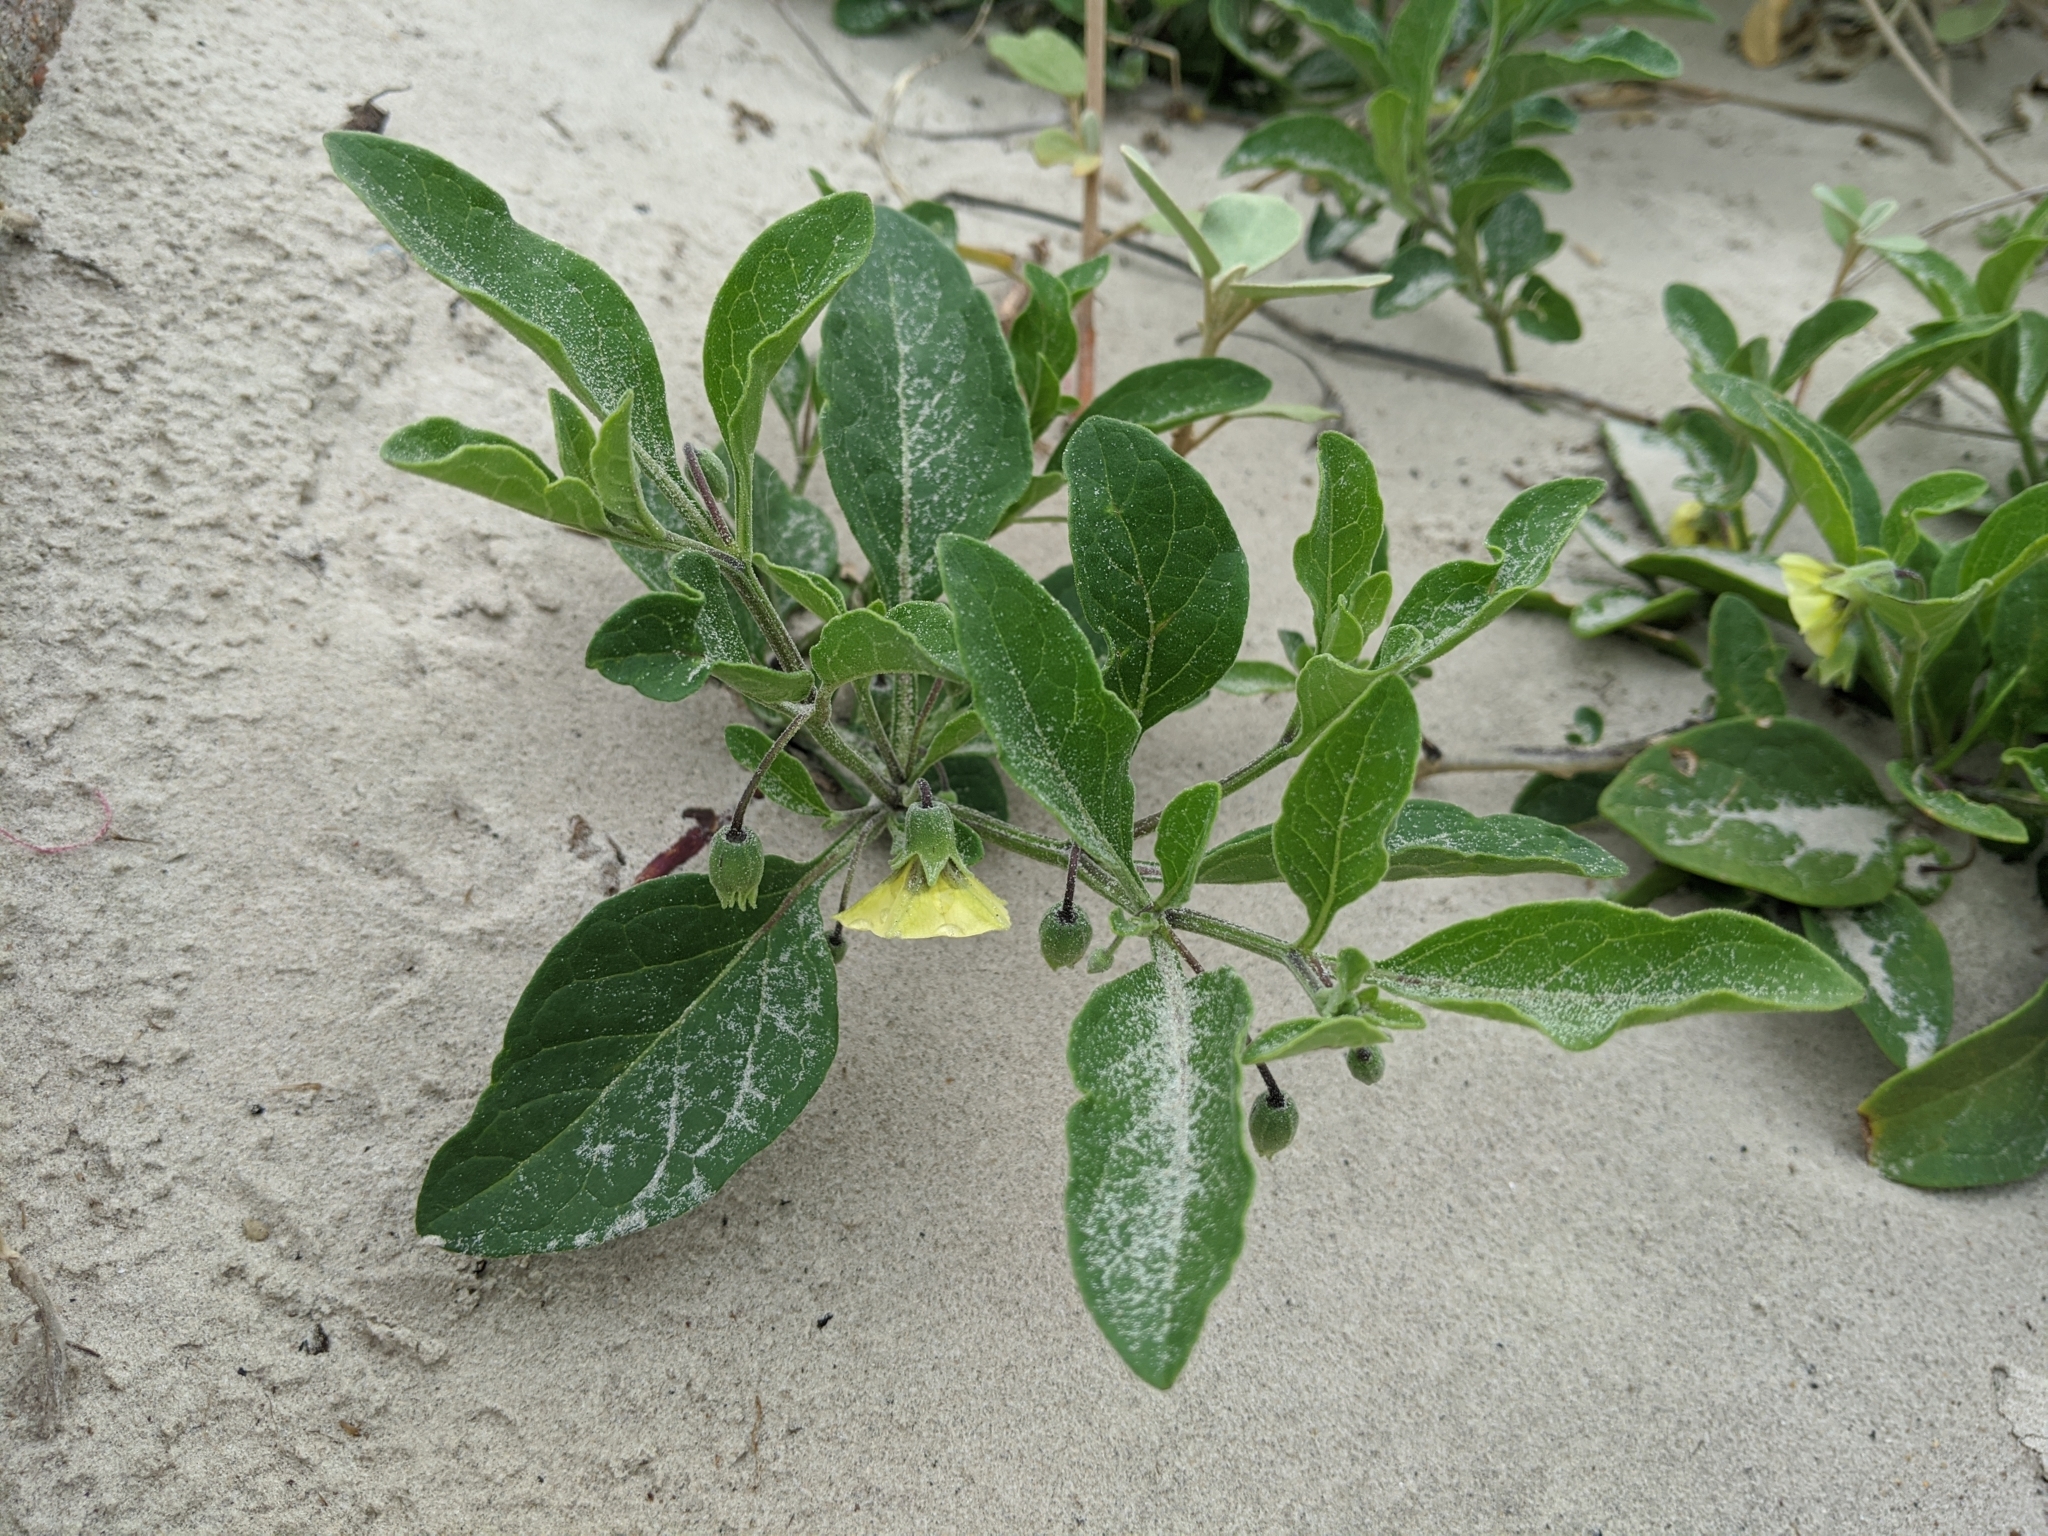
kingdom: Plantae
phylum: Tracheophyta
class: Magnoliopsida
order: Solanales
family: Solanaceae
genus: Physalis
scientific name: Physalis cinerascens
